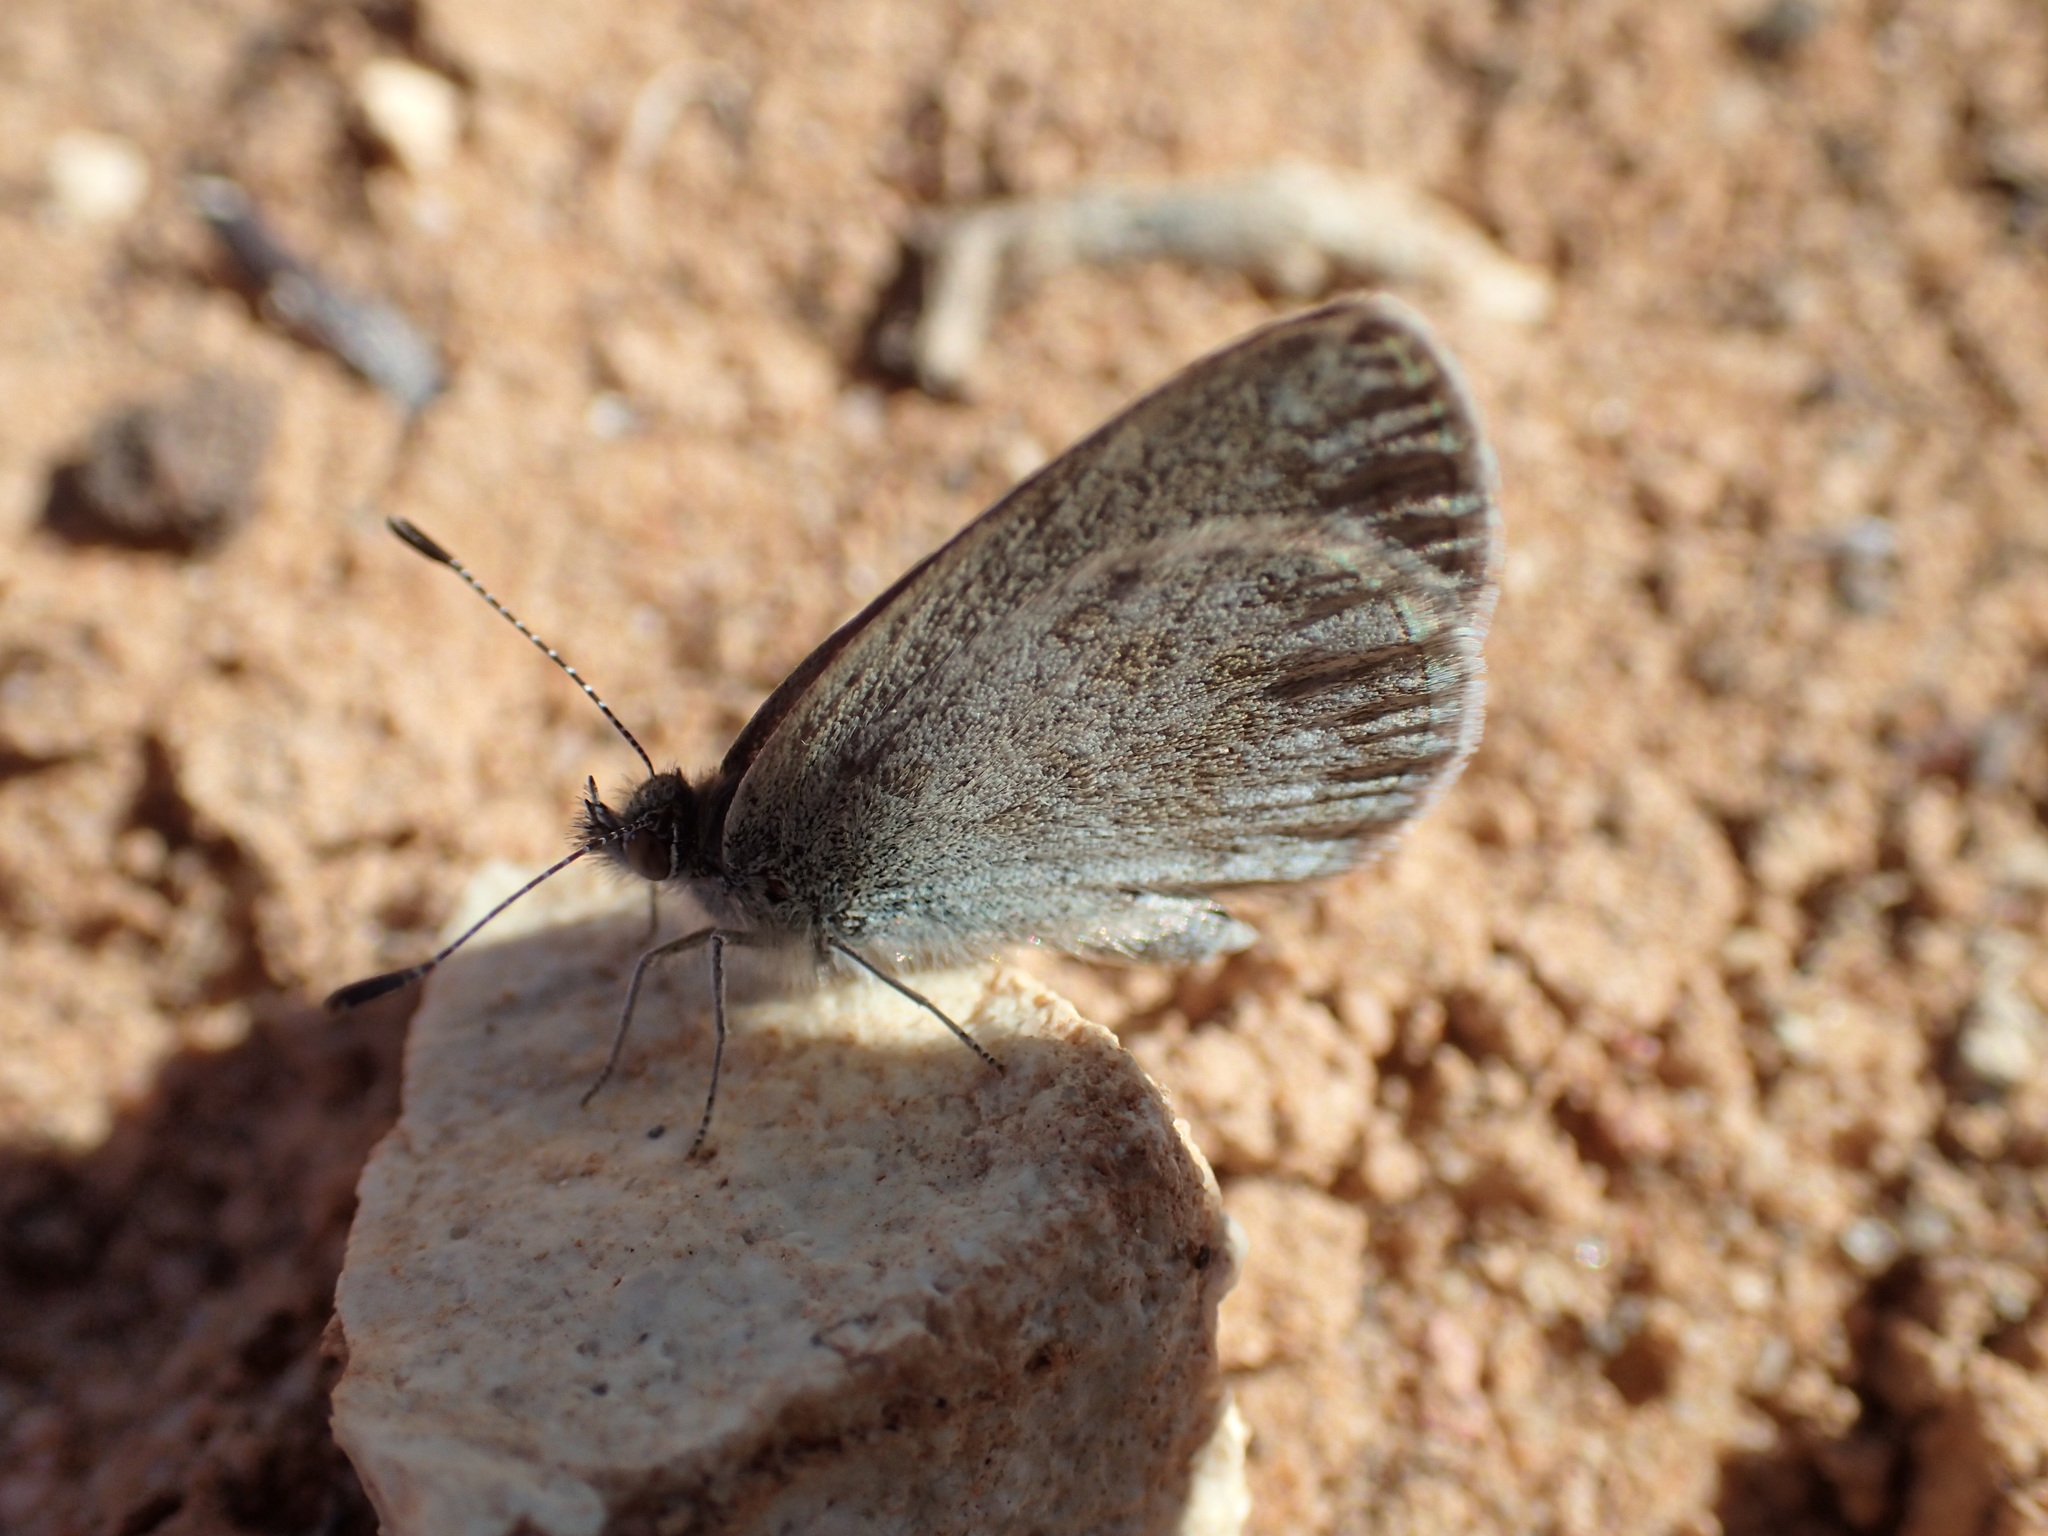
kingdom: Animalia
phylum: Arthropoda
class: Insecta
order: Lepidoptera
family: Lycaenidae
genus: Zizina
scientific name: Zizina otis
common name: Lesser grass blue
